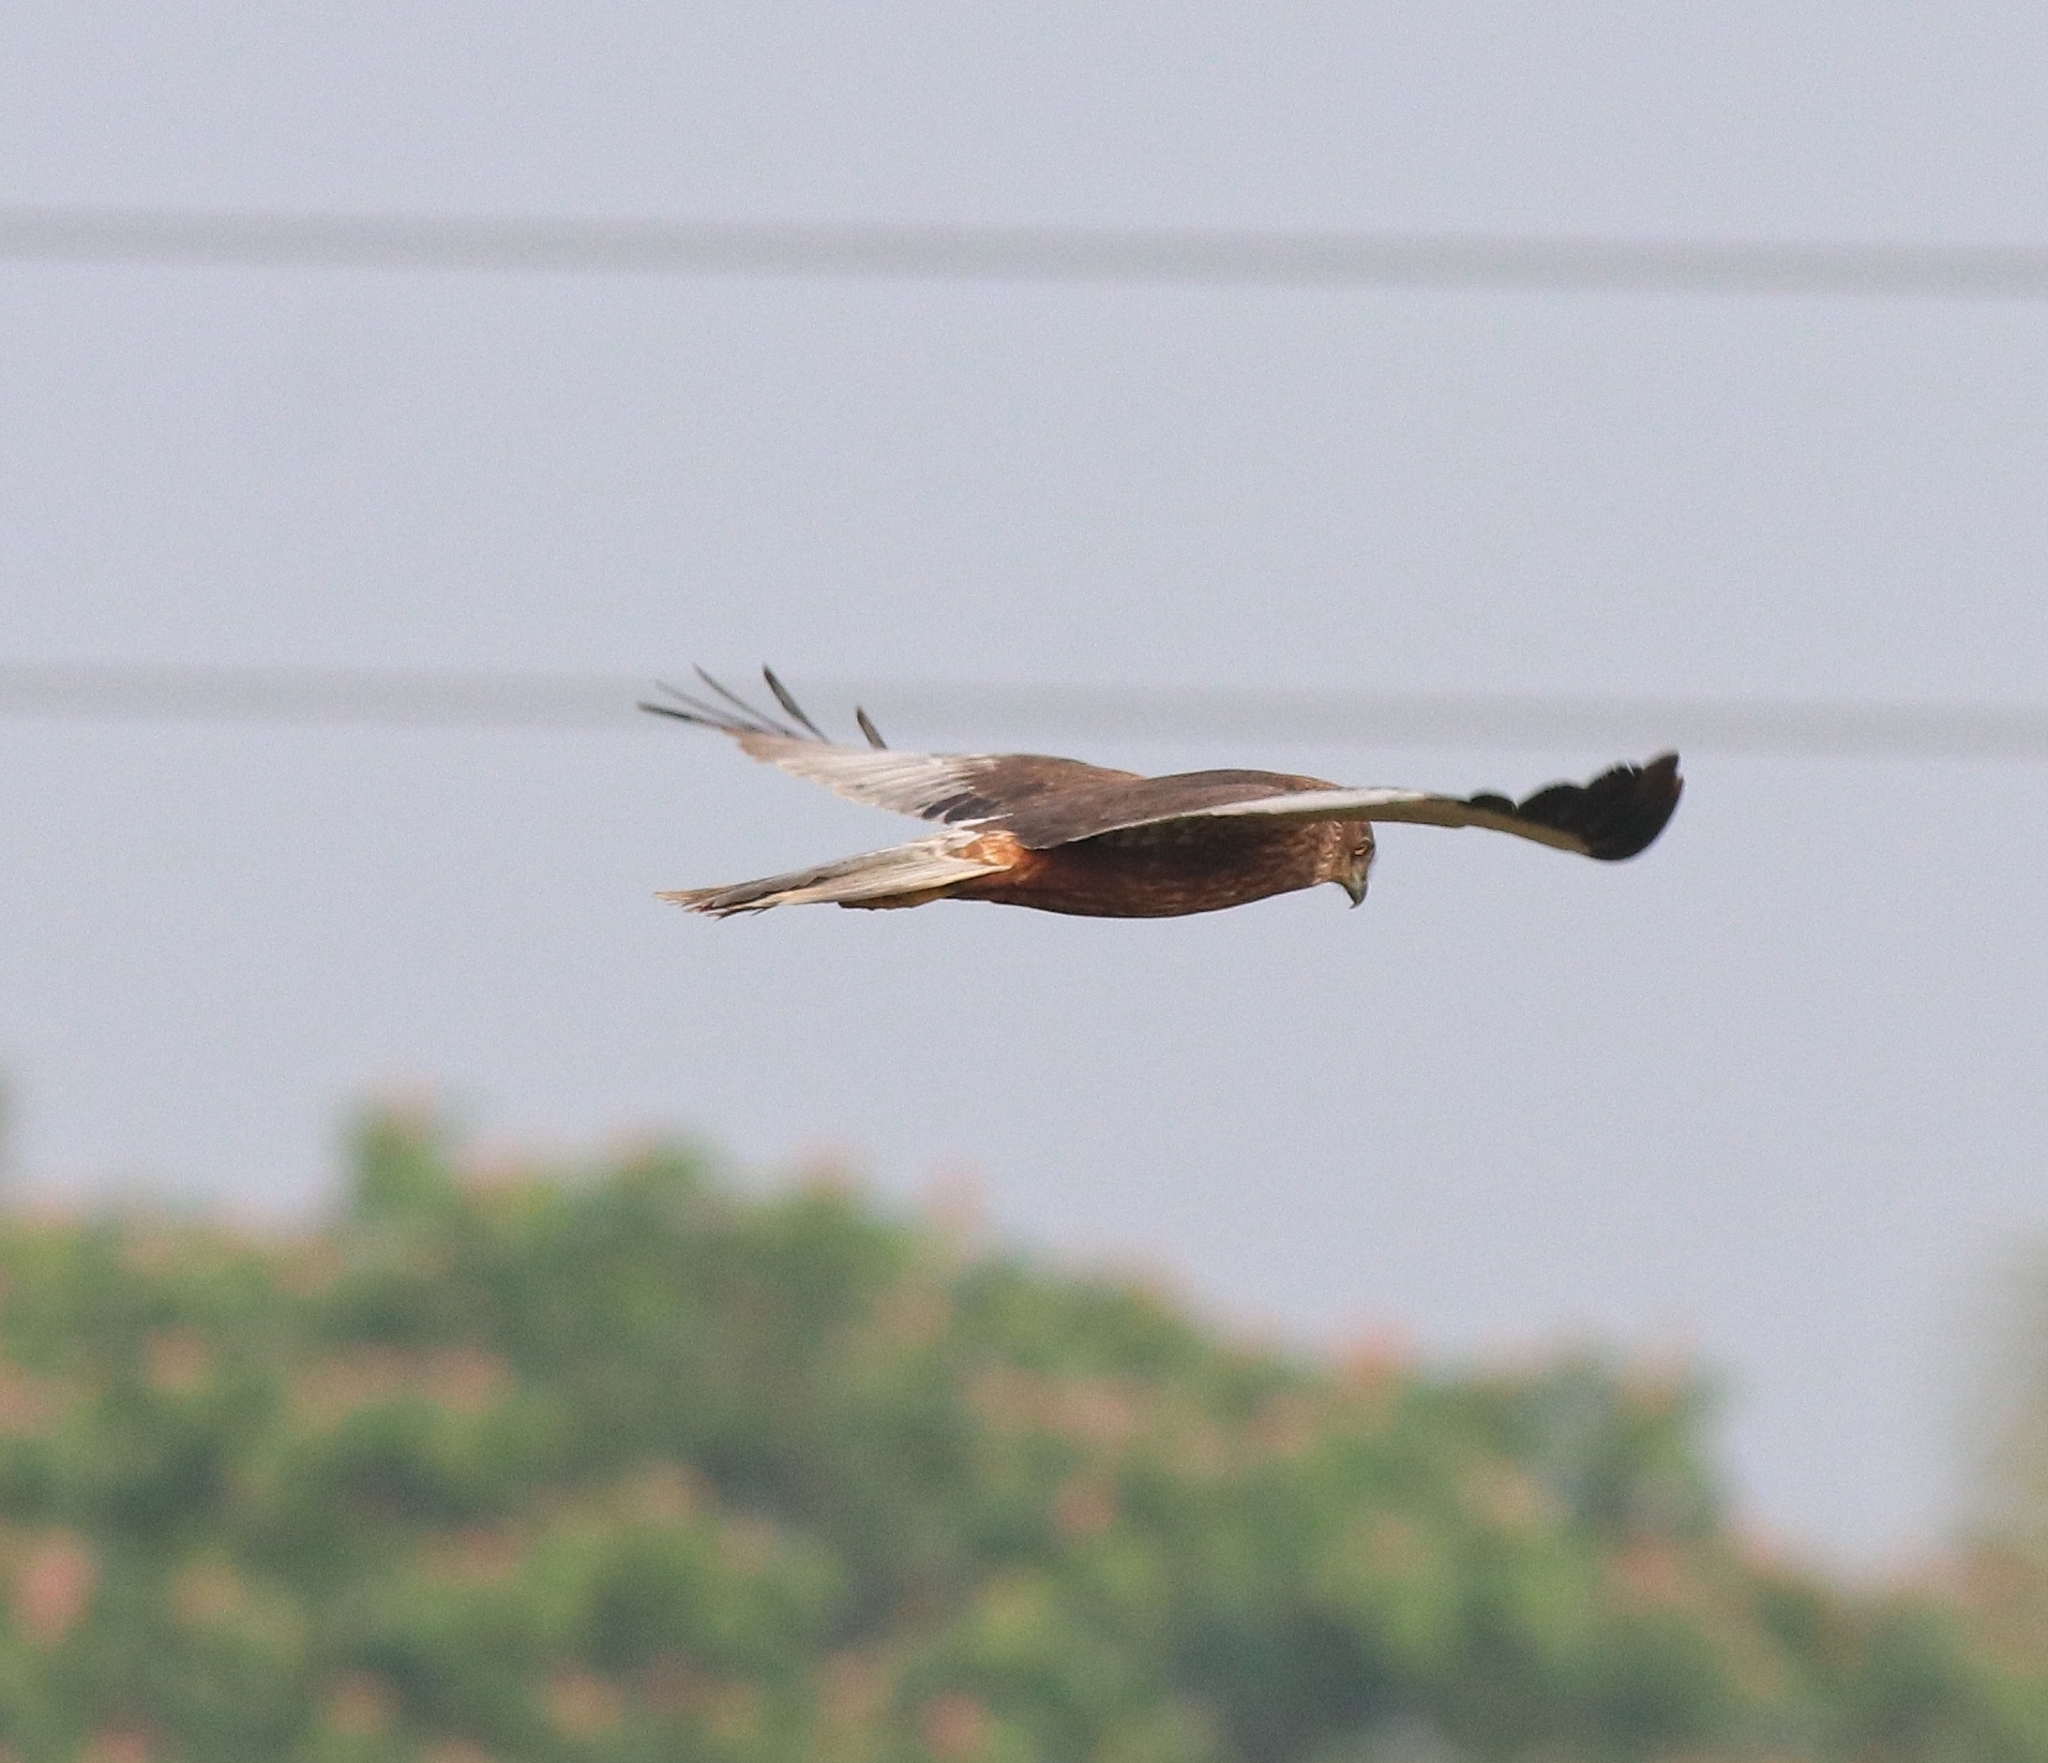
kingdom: Animalia
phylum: Chordata
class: Aves
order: Accipitriformes
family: Accipitridae
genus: Circus
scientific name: Circus aeruginosus
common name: Western marsh harrier
